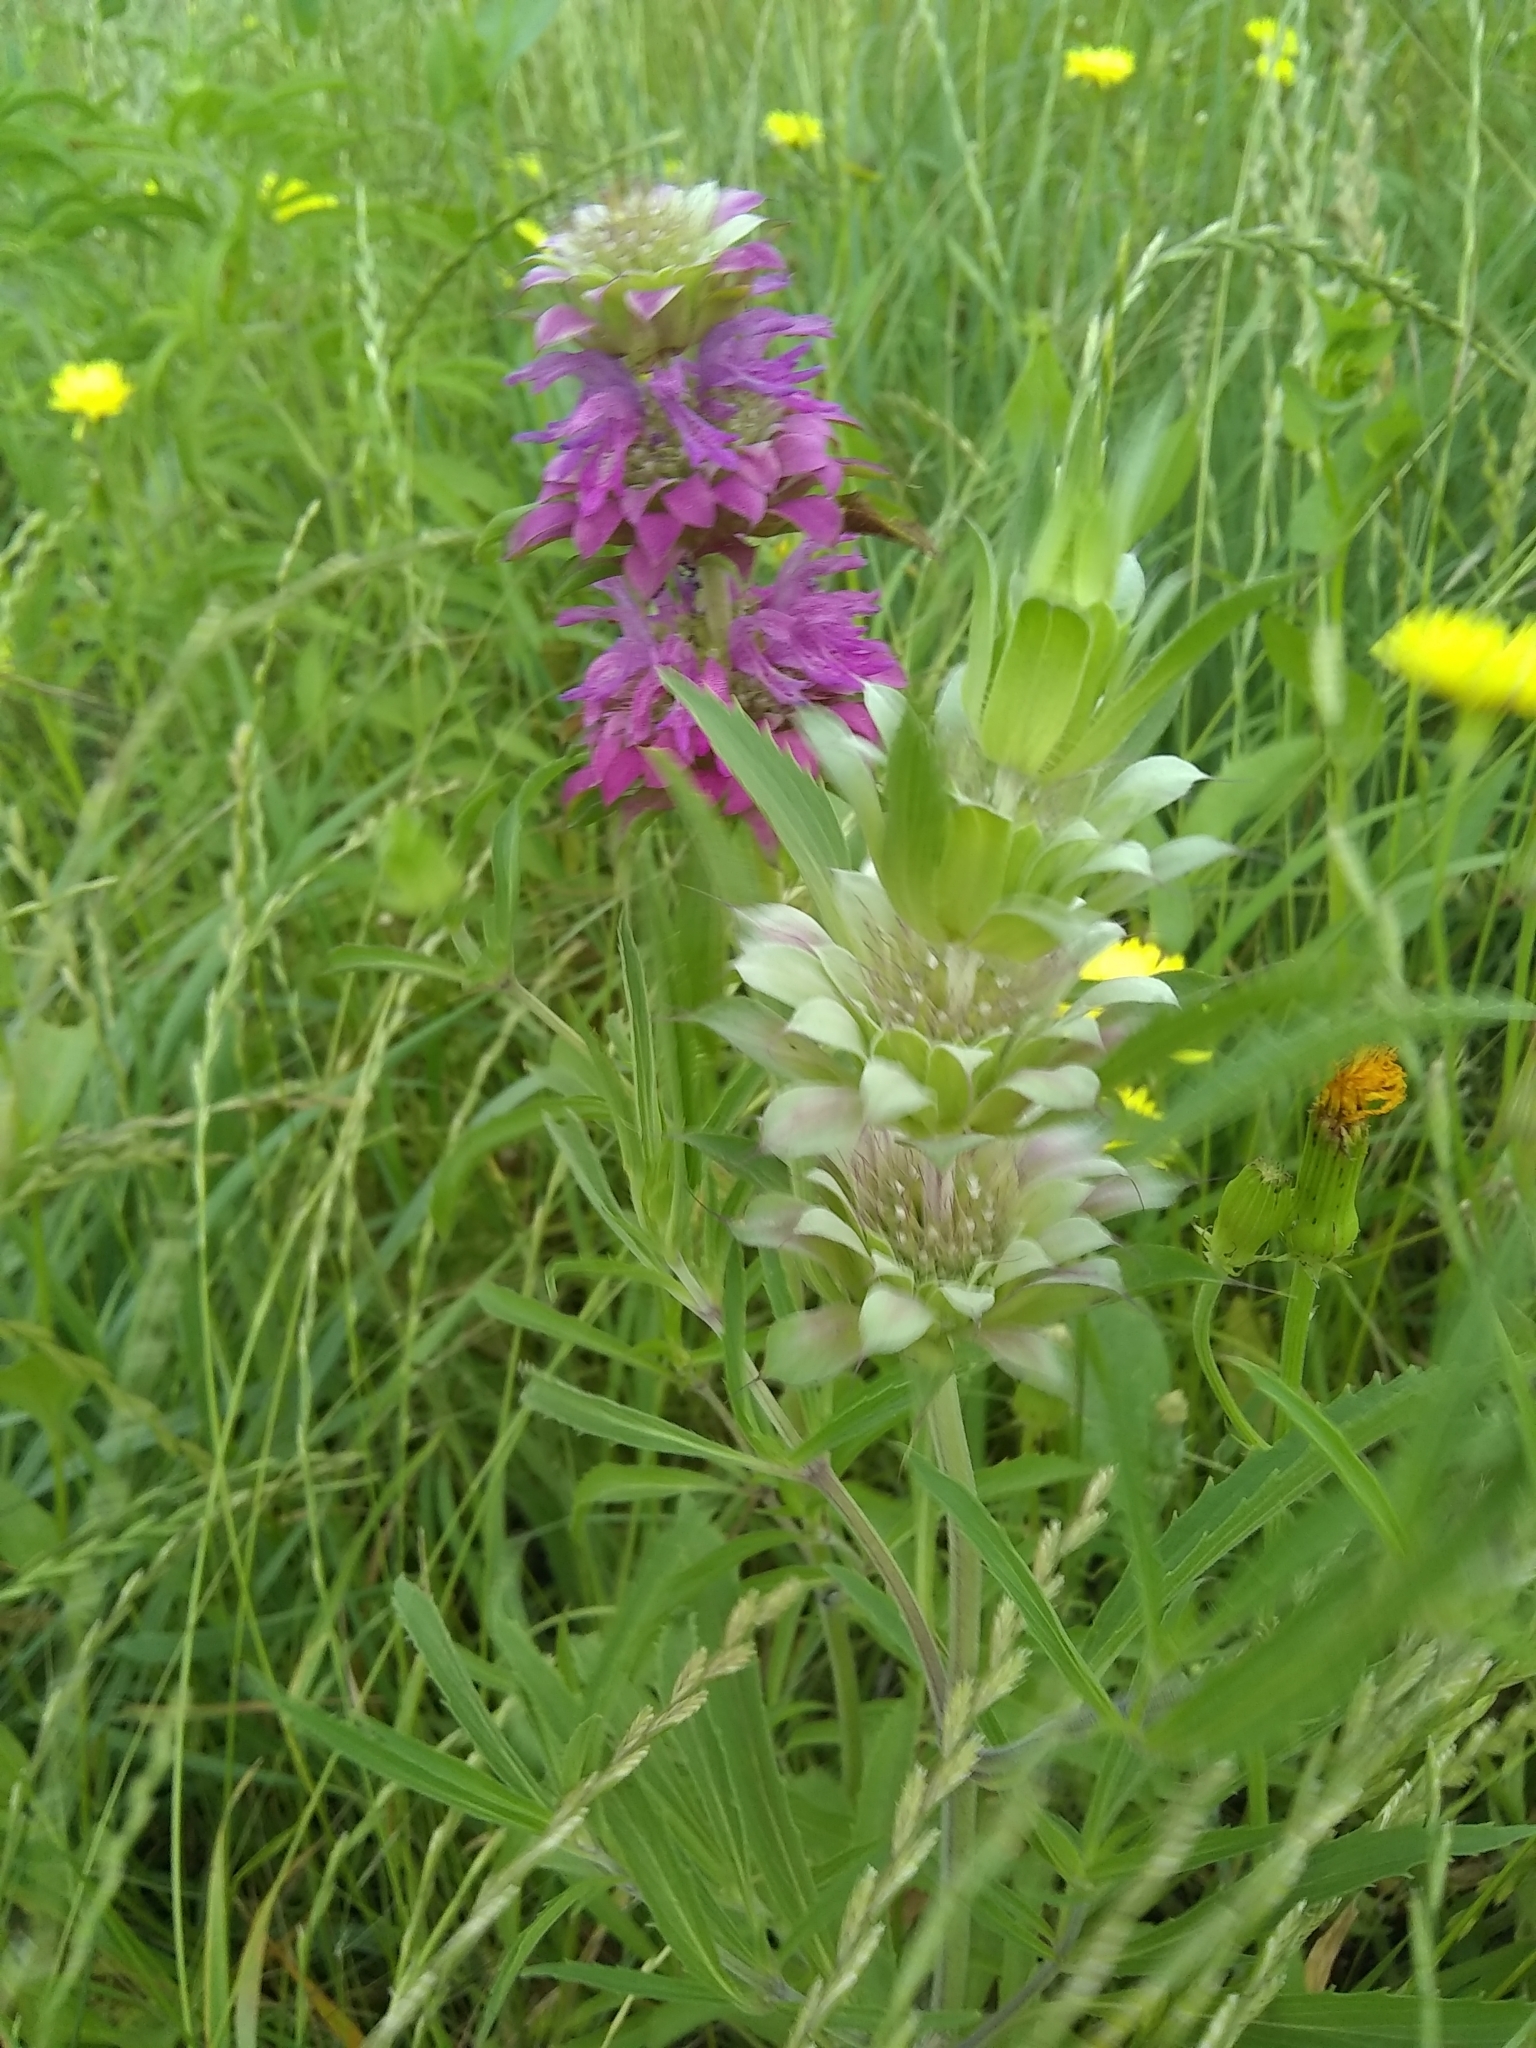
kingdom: Plantae
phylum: Tracheophyta
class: Magnoliopsida
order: Lamiales
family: Lamiaceae
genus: Monarda
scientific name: Monarda citriodora
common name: Lemon beebalm
